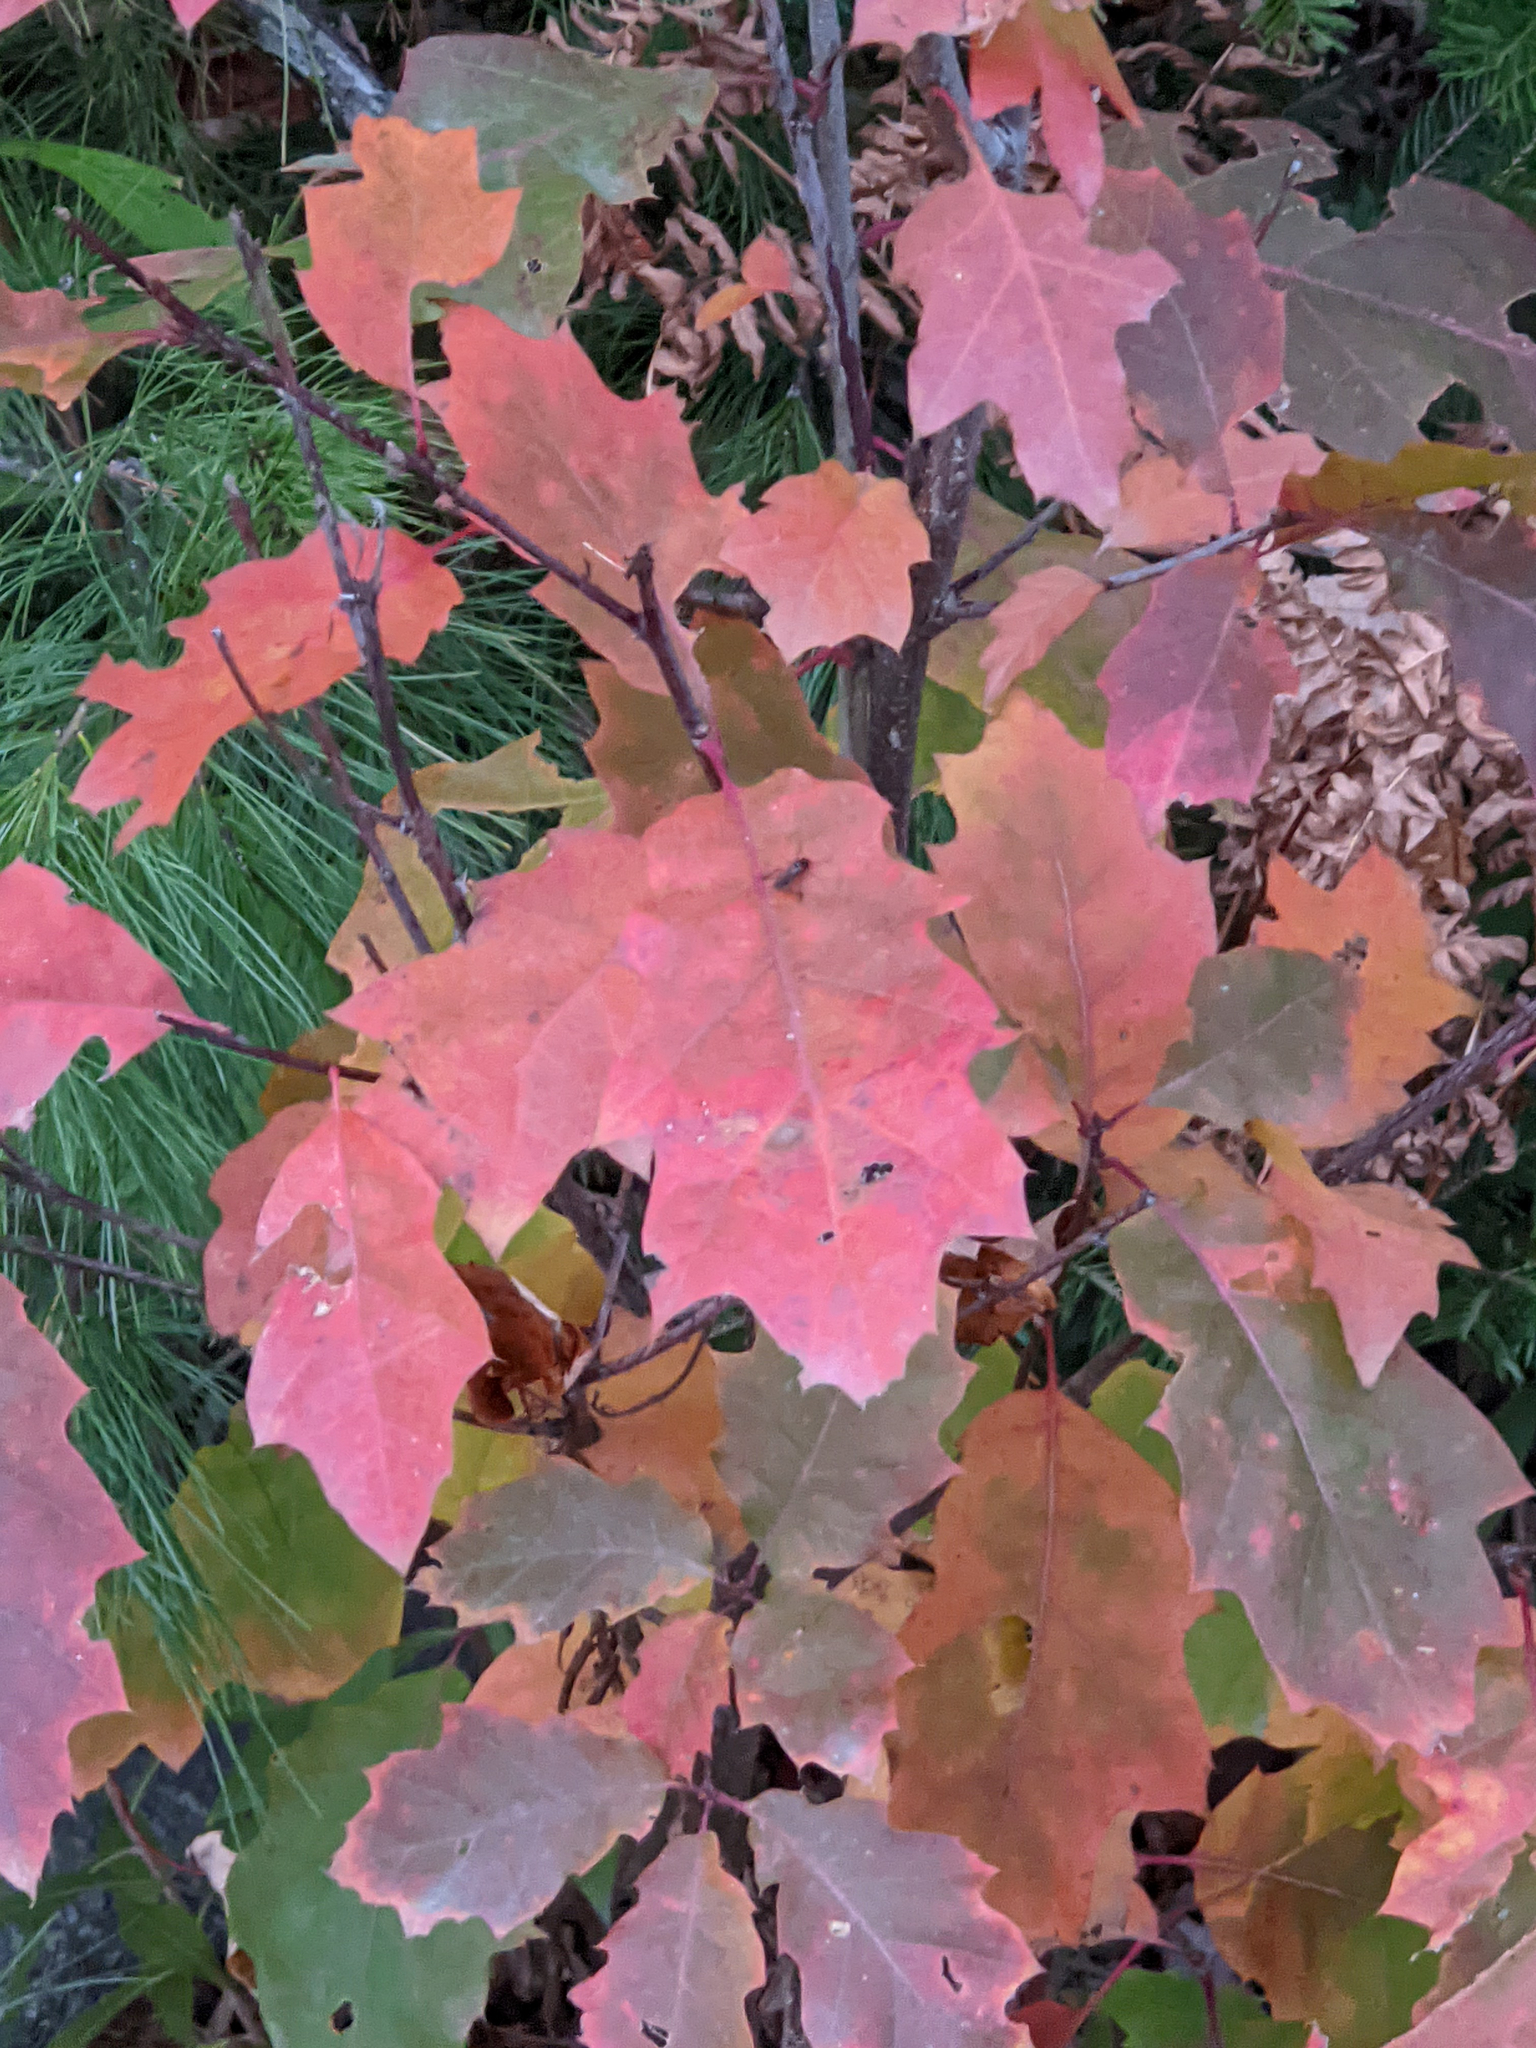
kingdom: Plantae
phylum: Tracheophyta
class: Magnoliopsida
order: Fagales
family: Fagaceae
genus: Quercus
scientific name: Quercus rubra
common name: Red oak
